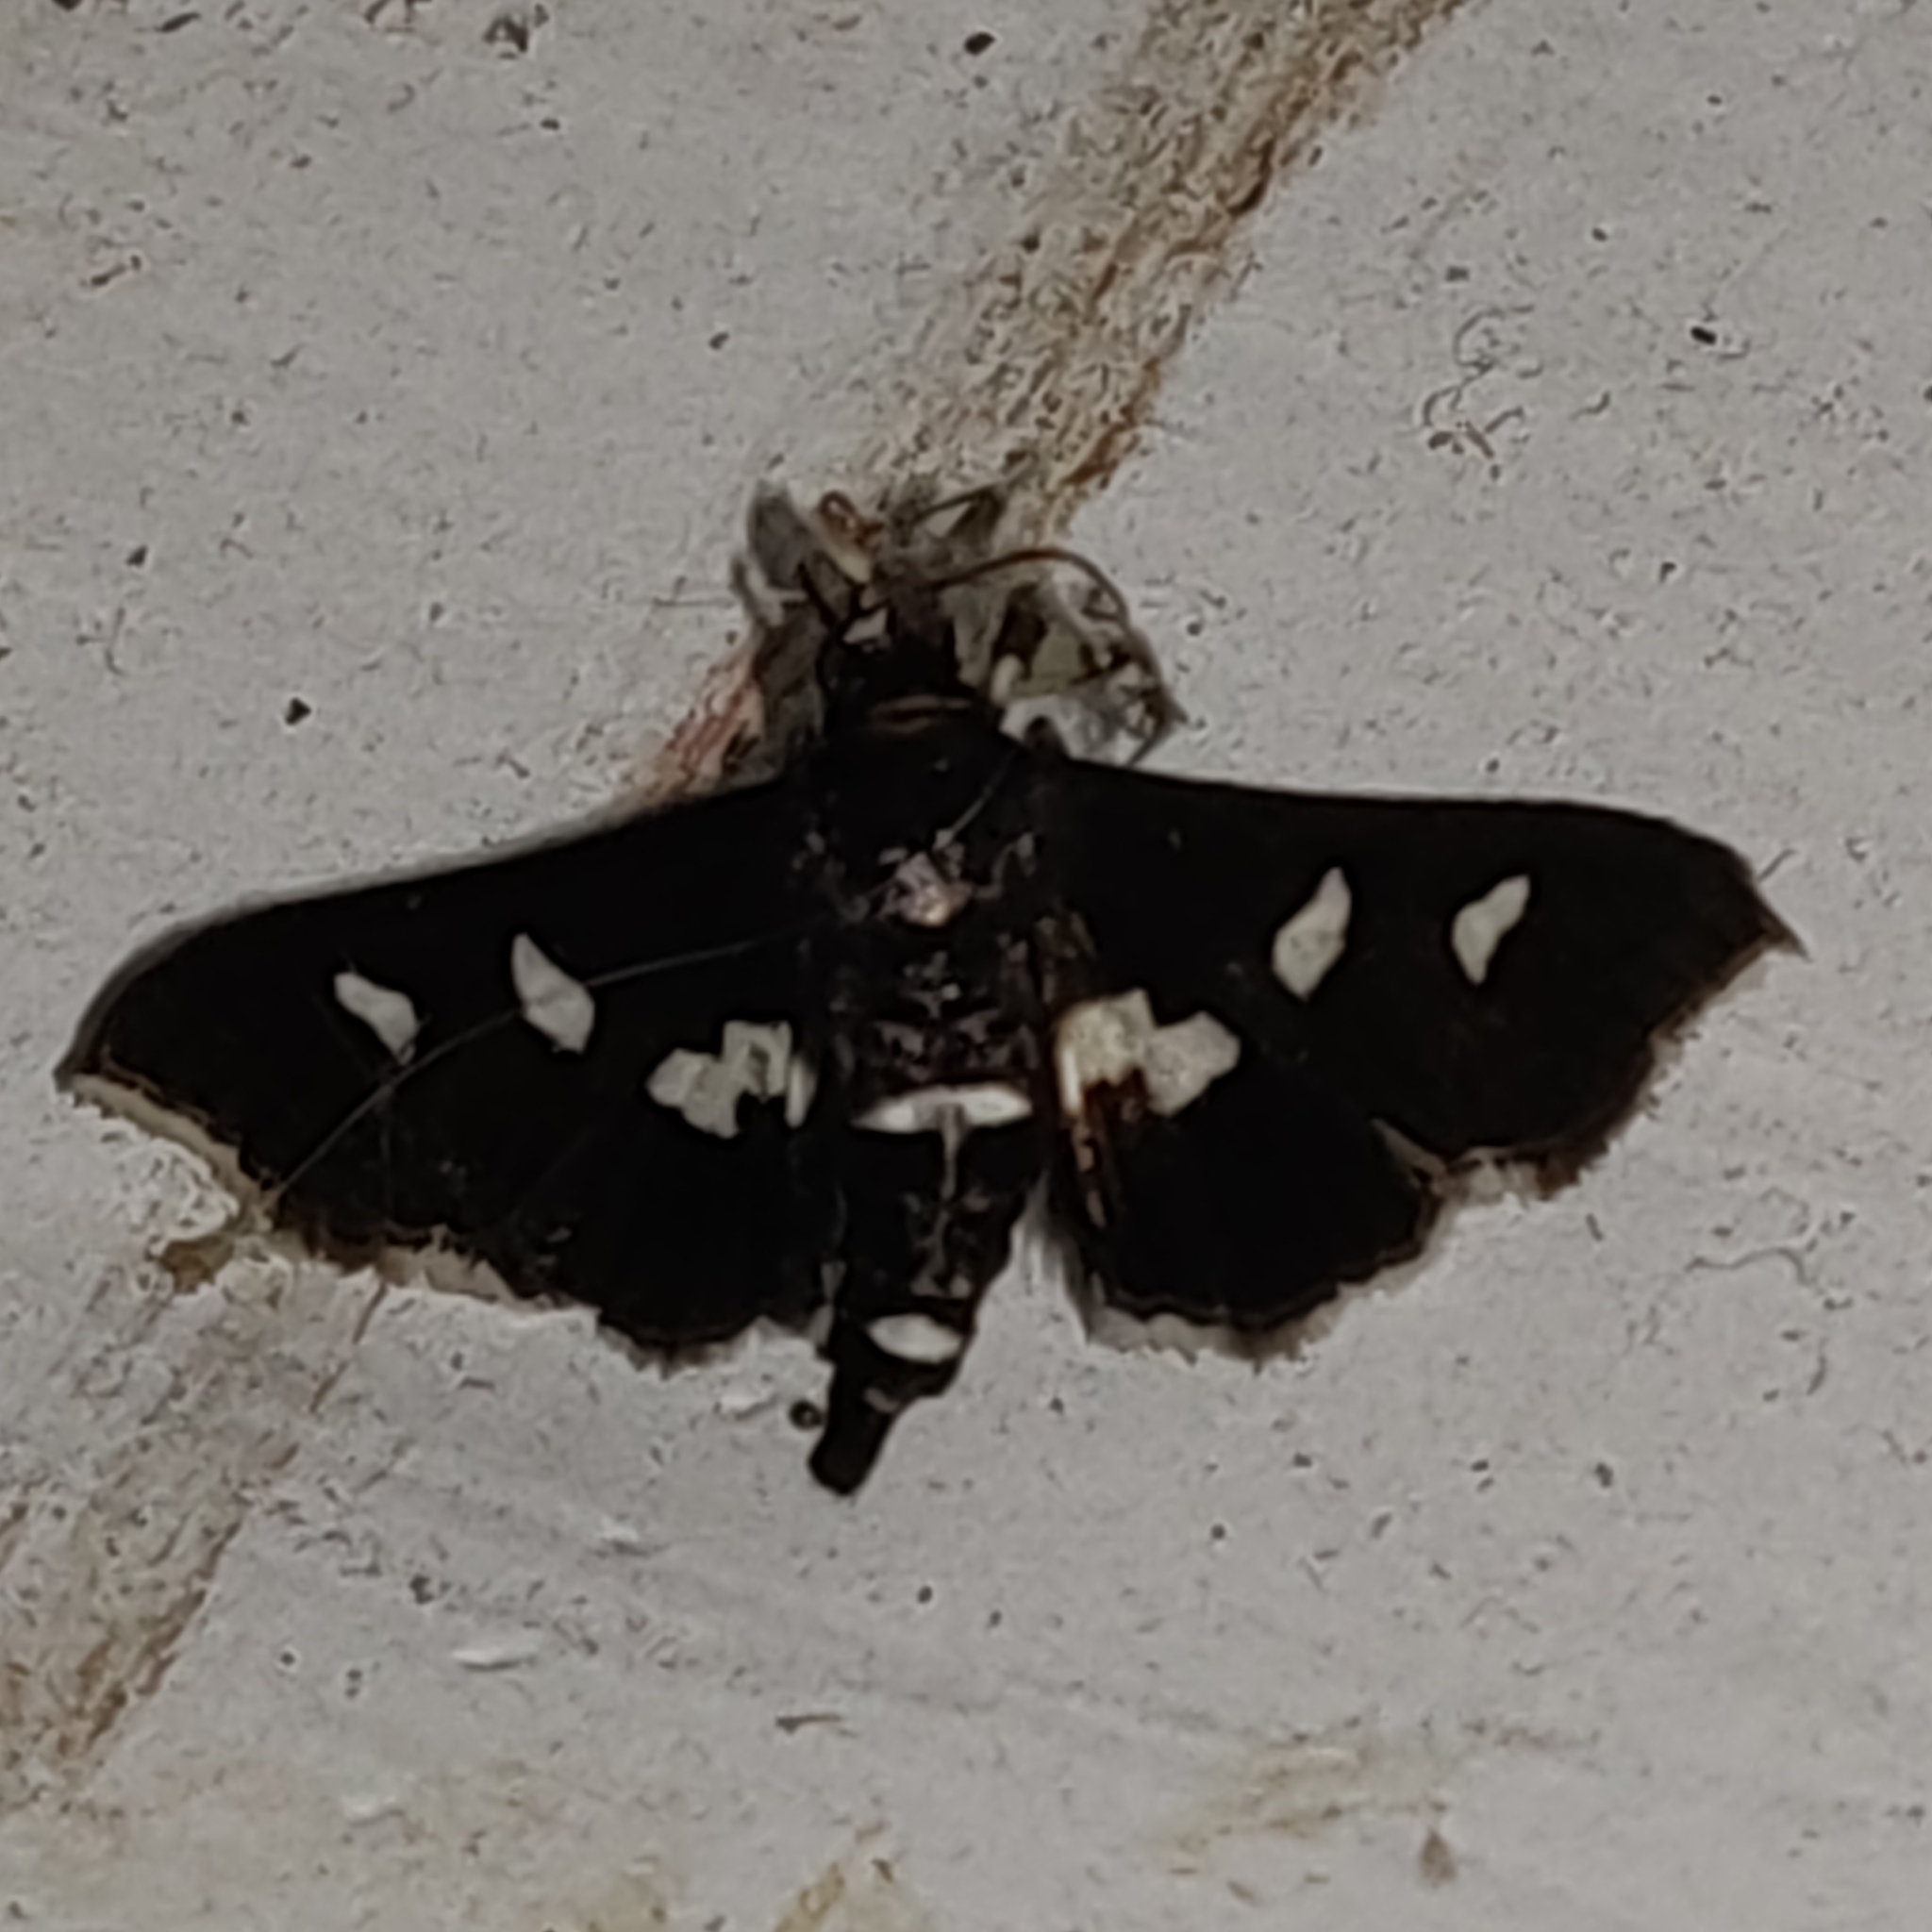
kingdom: Animalia
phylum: Arthropoda
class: Insecta
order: Lepidoptera
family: Crambidae
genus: Desmia
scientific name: Desmia
